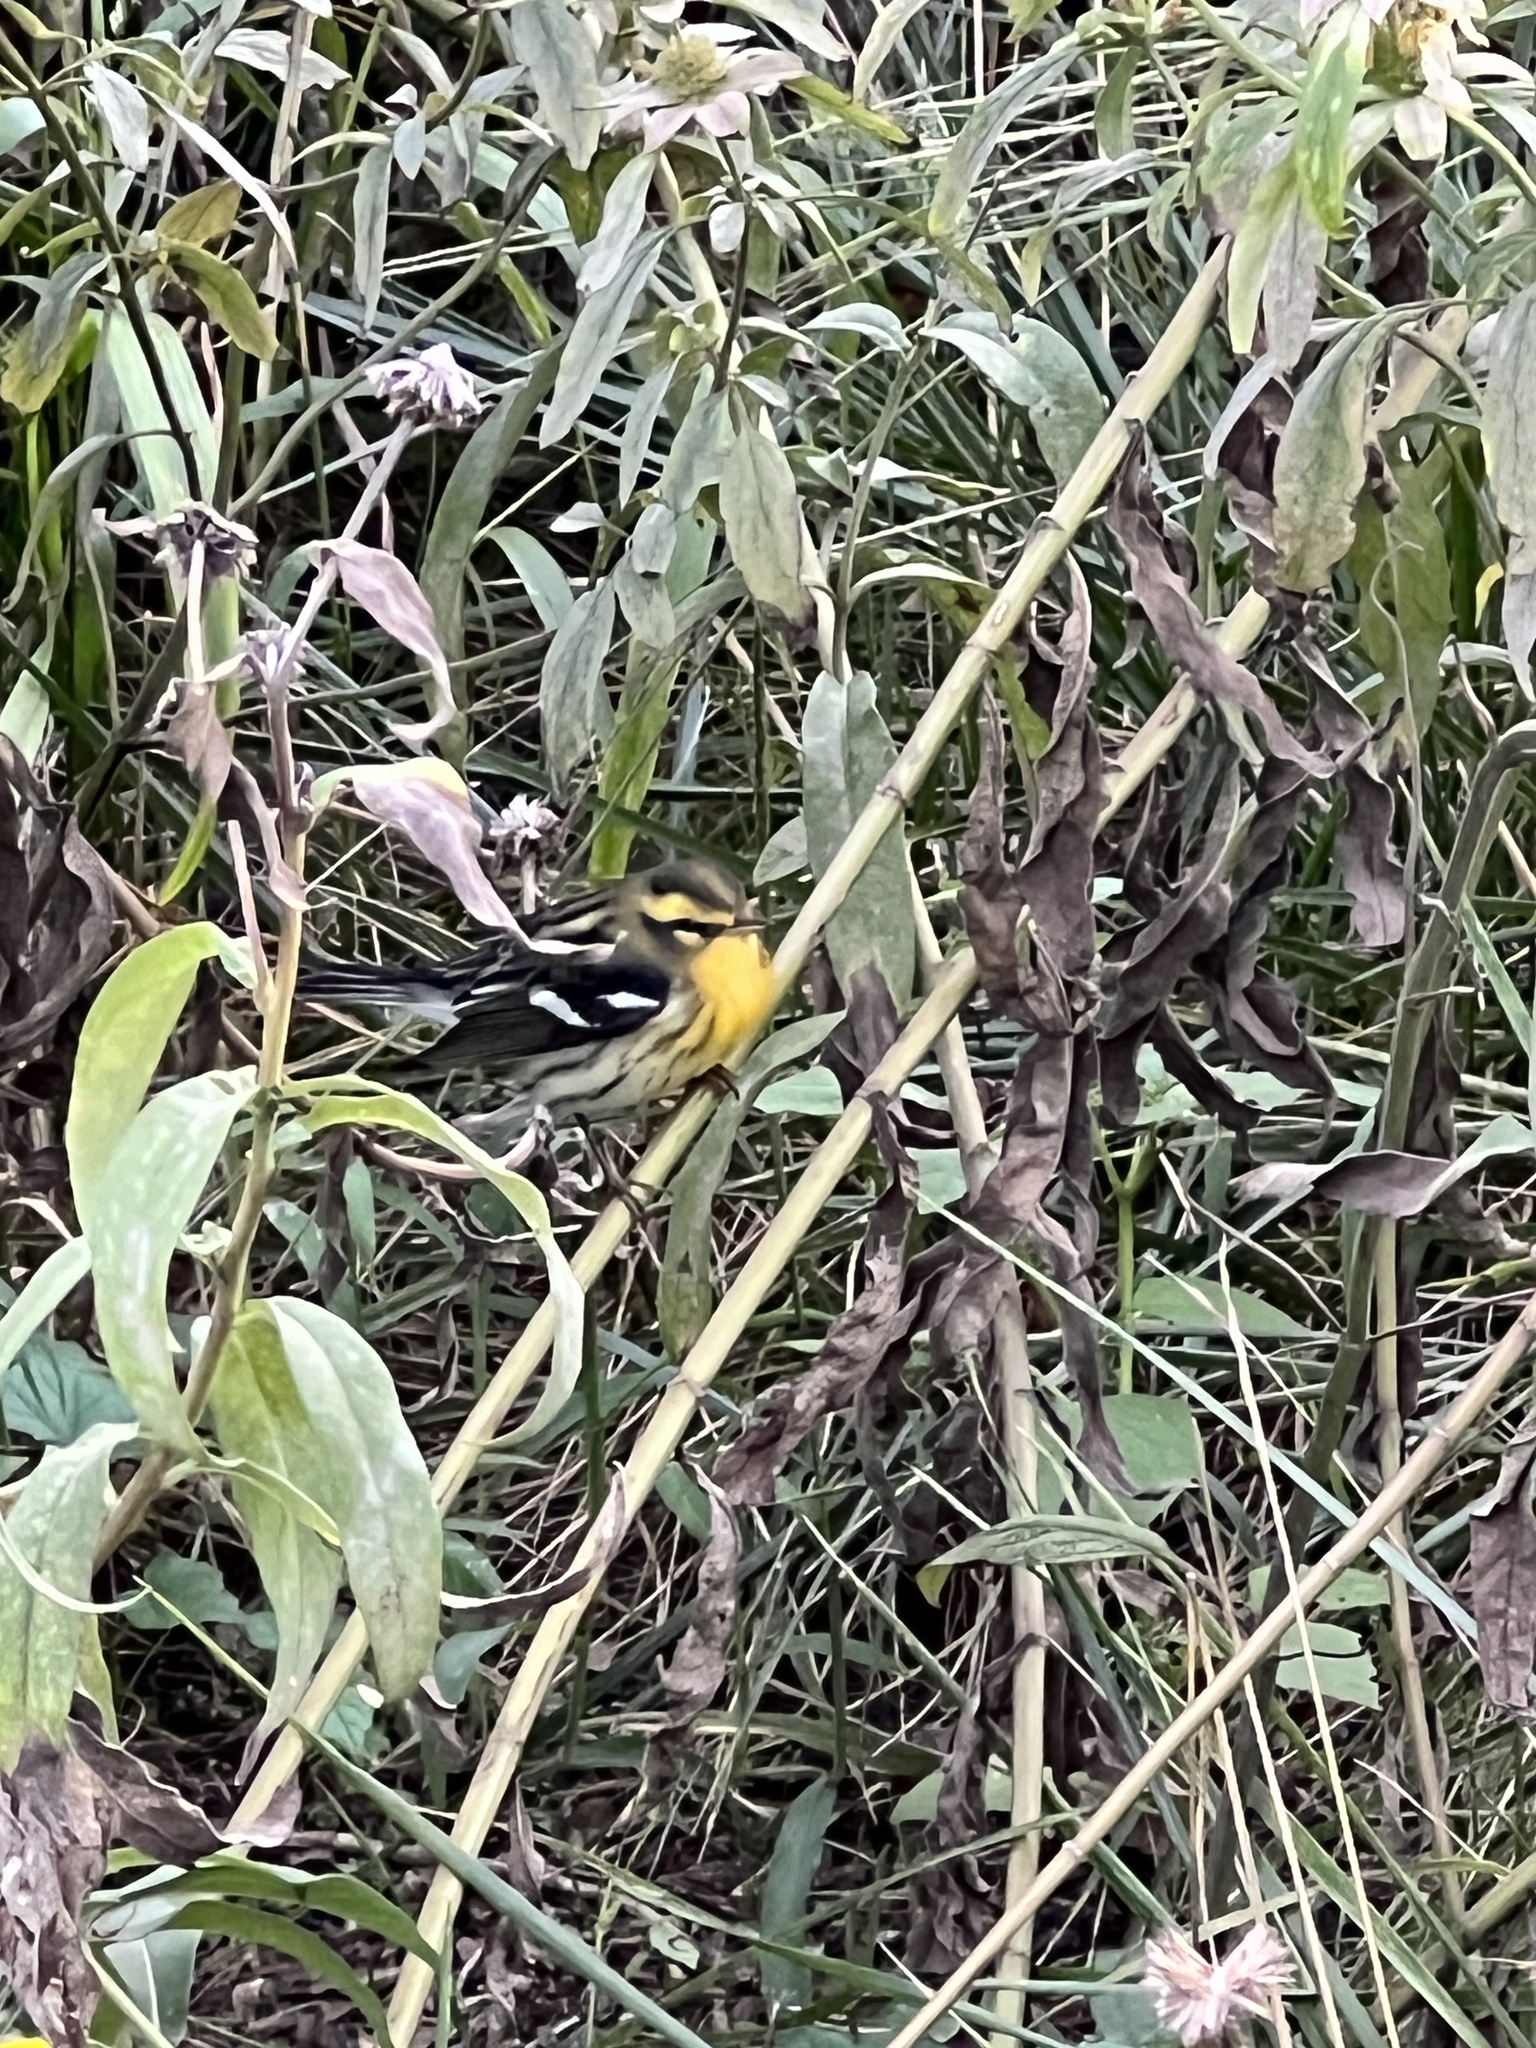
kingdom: Animalia
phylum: Chordata
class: Aves
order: Passeriformes
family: Parulidae
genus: Setophaga
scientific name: Setophaga fusca
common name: Blackburnian warbler
